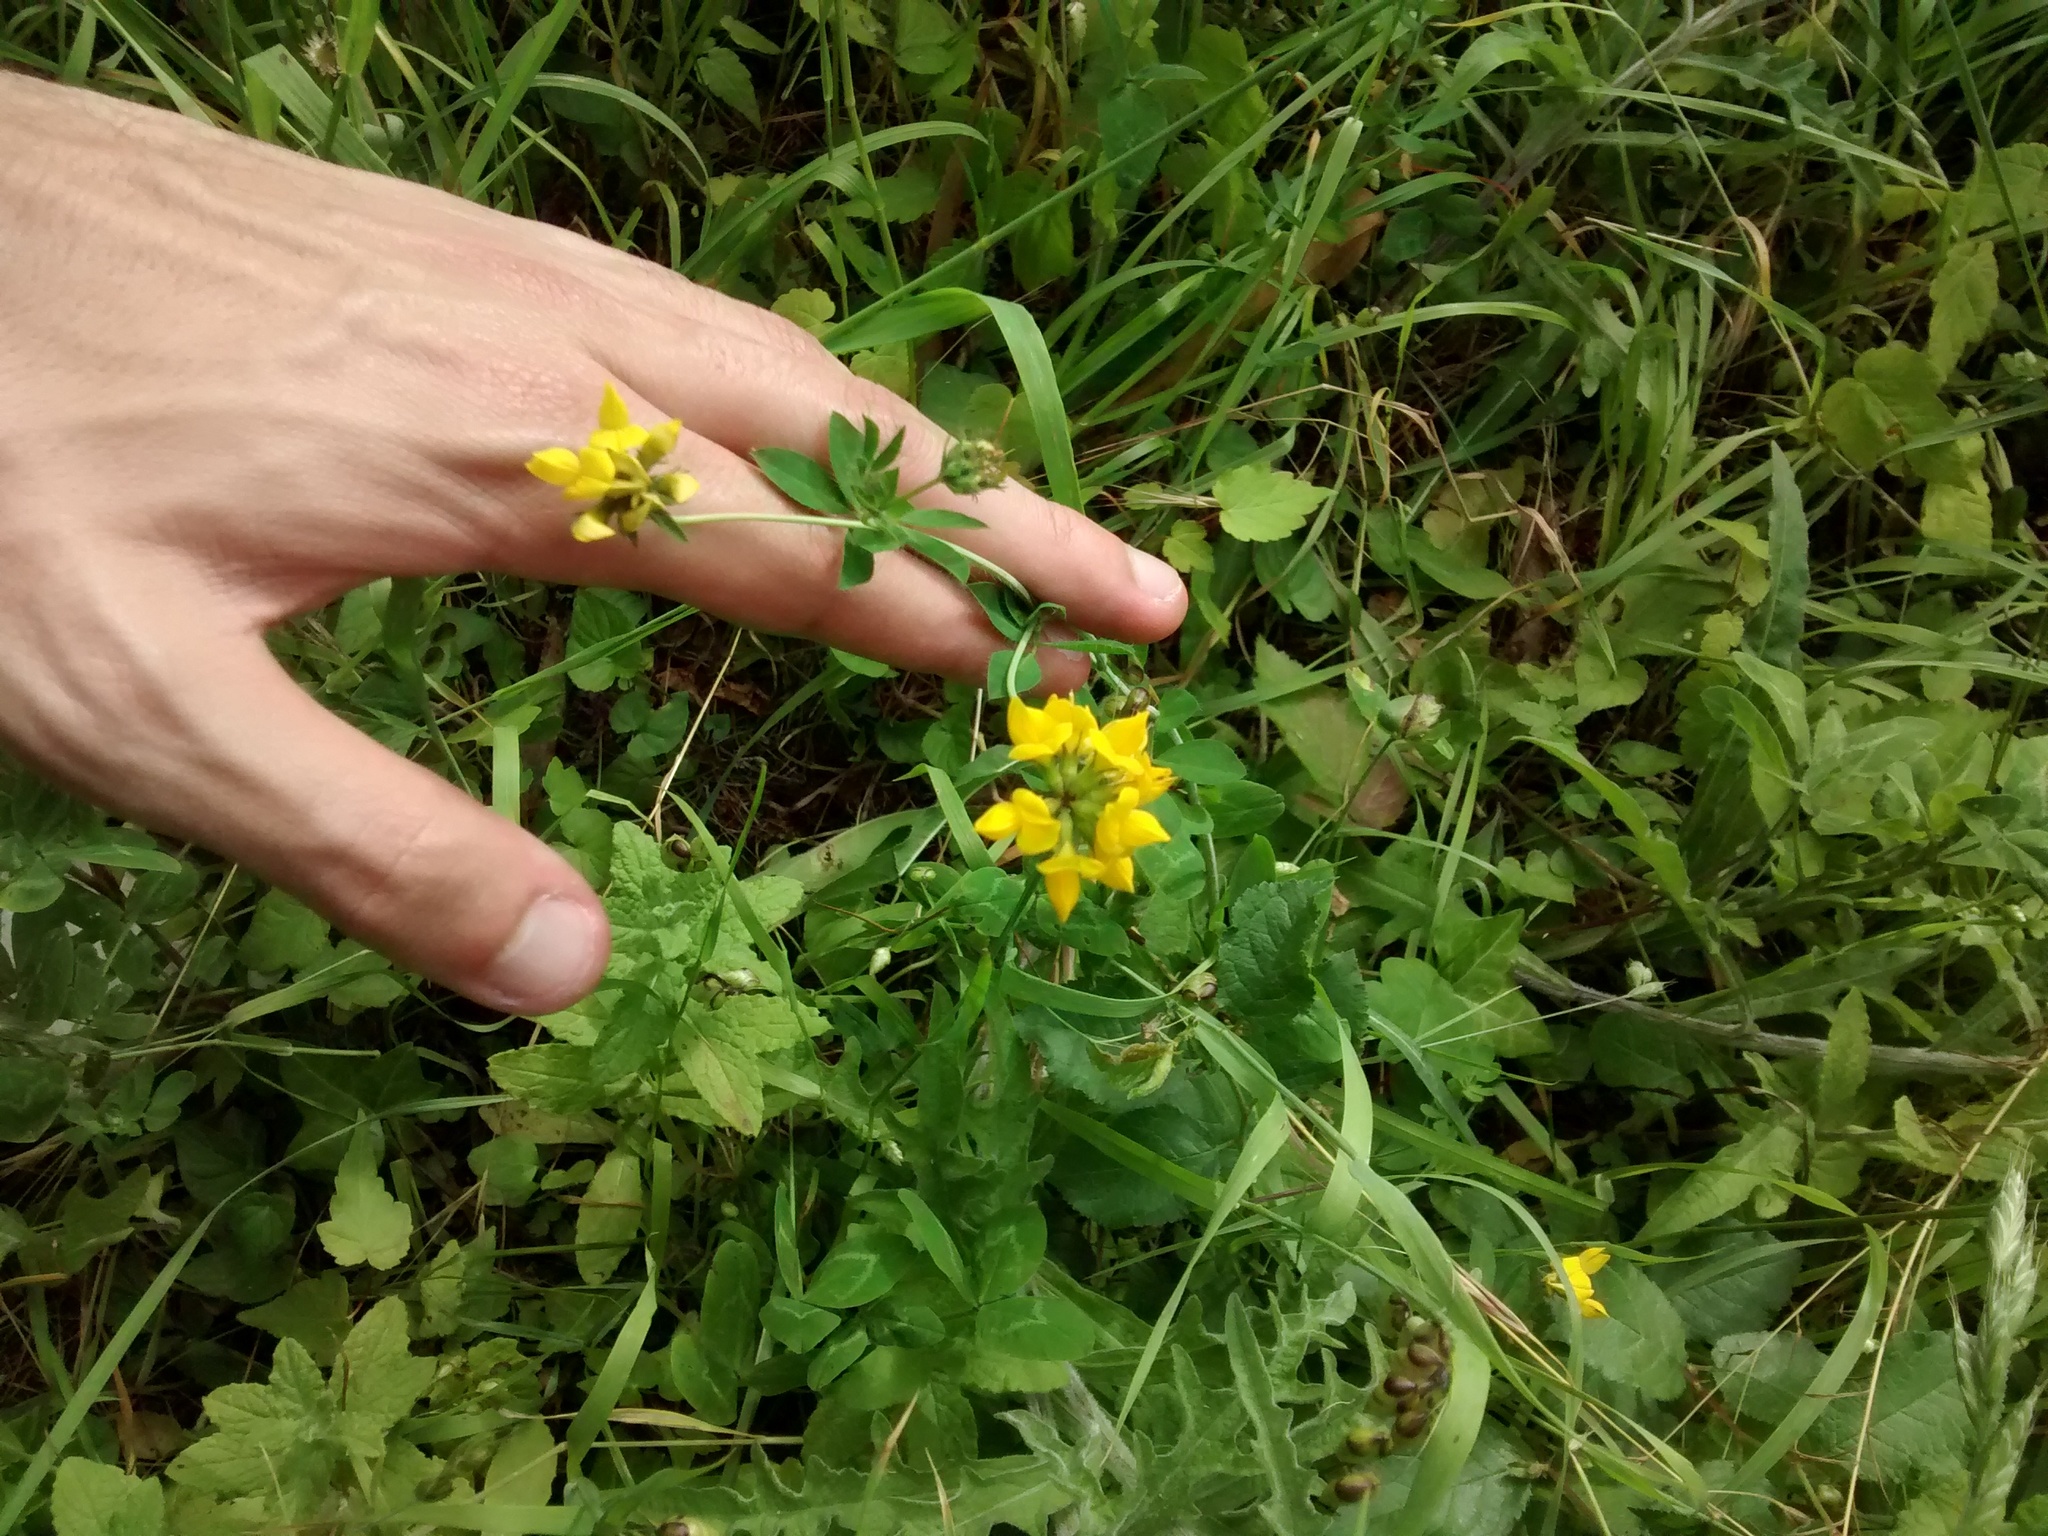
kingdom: Plantae
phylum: Tracheophyta
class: Magnoliopsida
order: Fabales
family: Fabaceae
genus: Lotus
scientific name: Lotus pedunculatus
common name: Greater birdsfoot-trefoil
